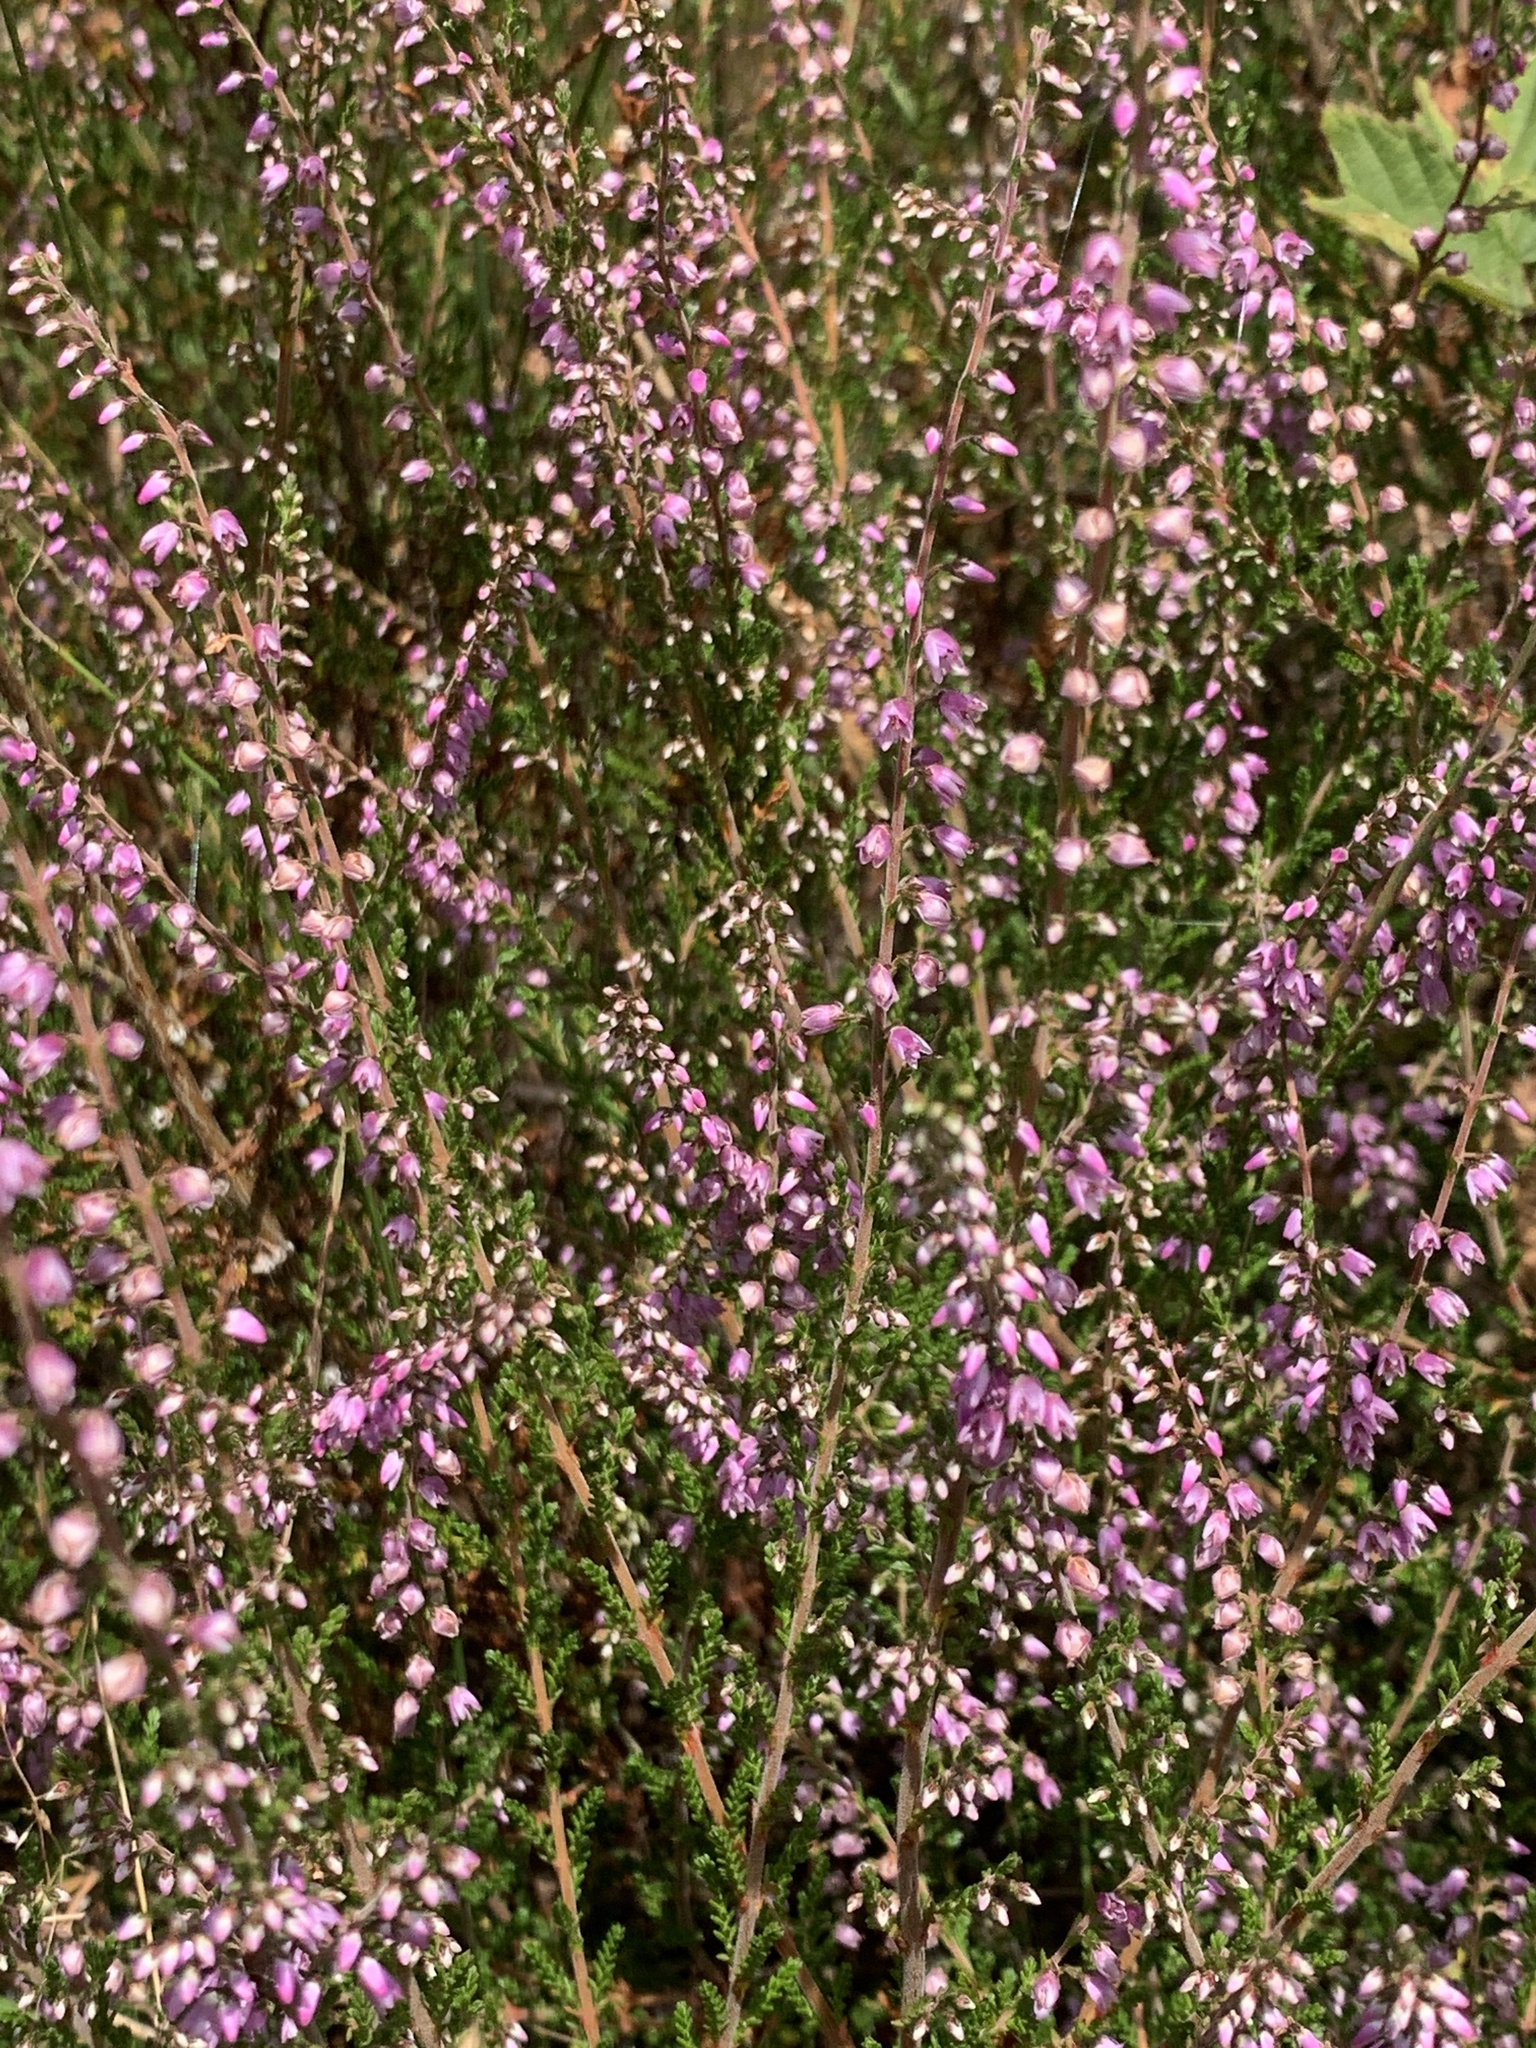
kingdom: Plantae
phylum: Tracheophyta
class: Magnoliopsida
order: Ericales
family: Ericaceae
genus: Calluna
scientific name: Calluna vulgaris
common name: Heather
